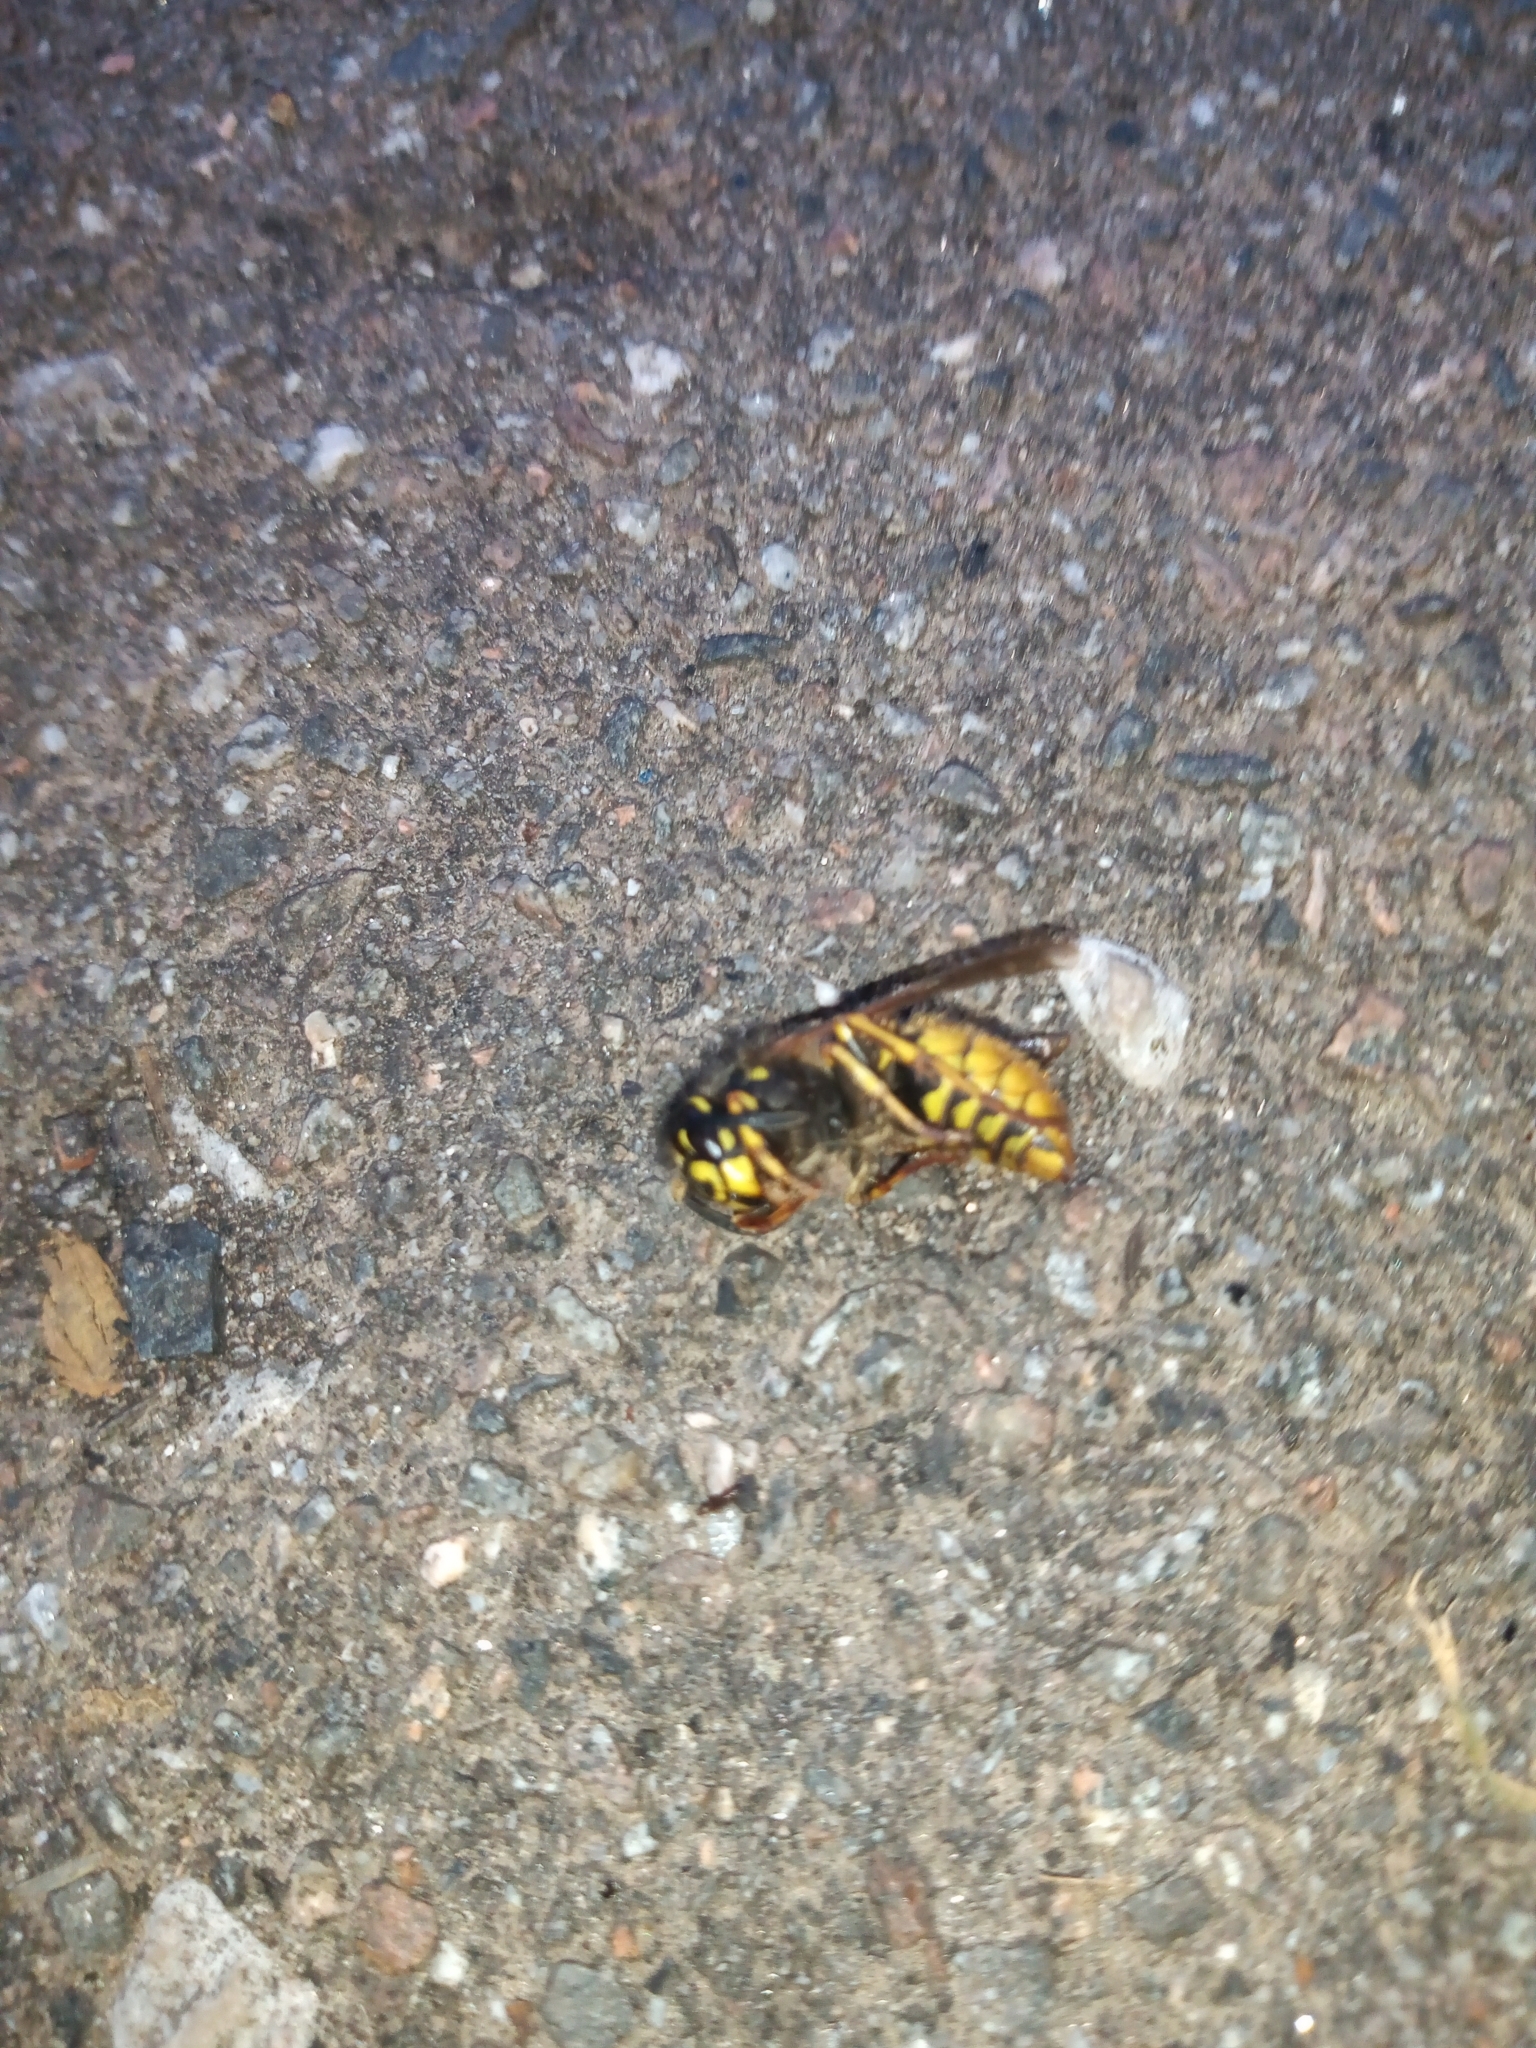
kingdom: Animalia
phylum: Arthropoda
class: Insecta
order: Hymenoptera
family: Vespidae
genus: Vespula
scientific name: Vespula vulgaris
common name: Common wasp
